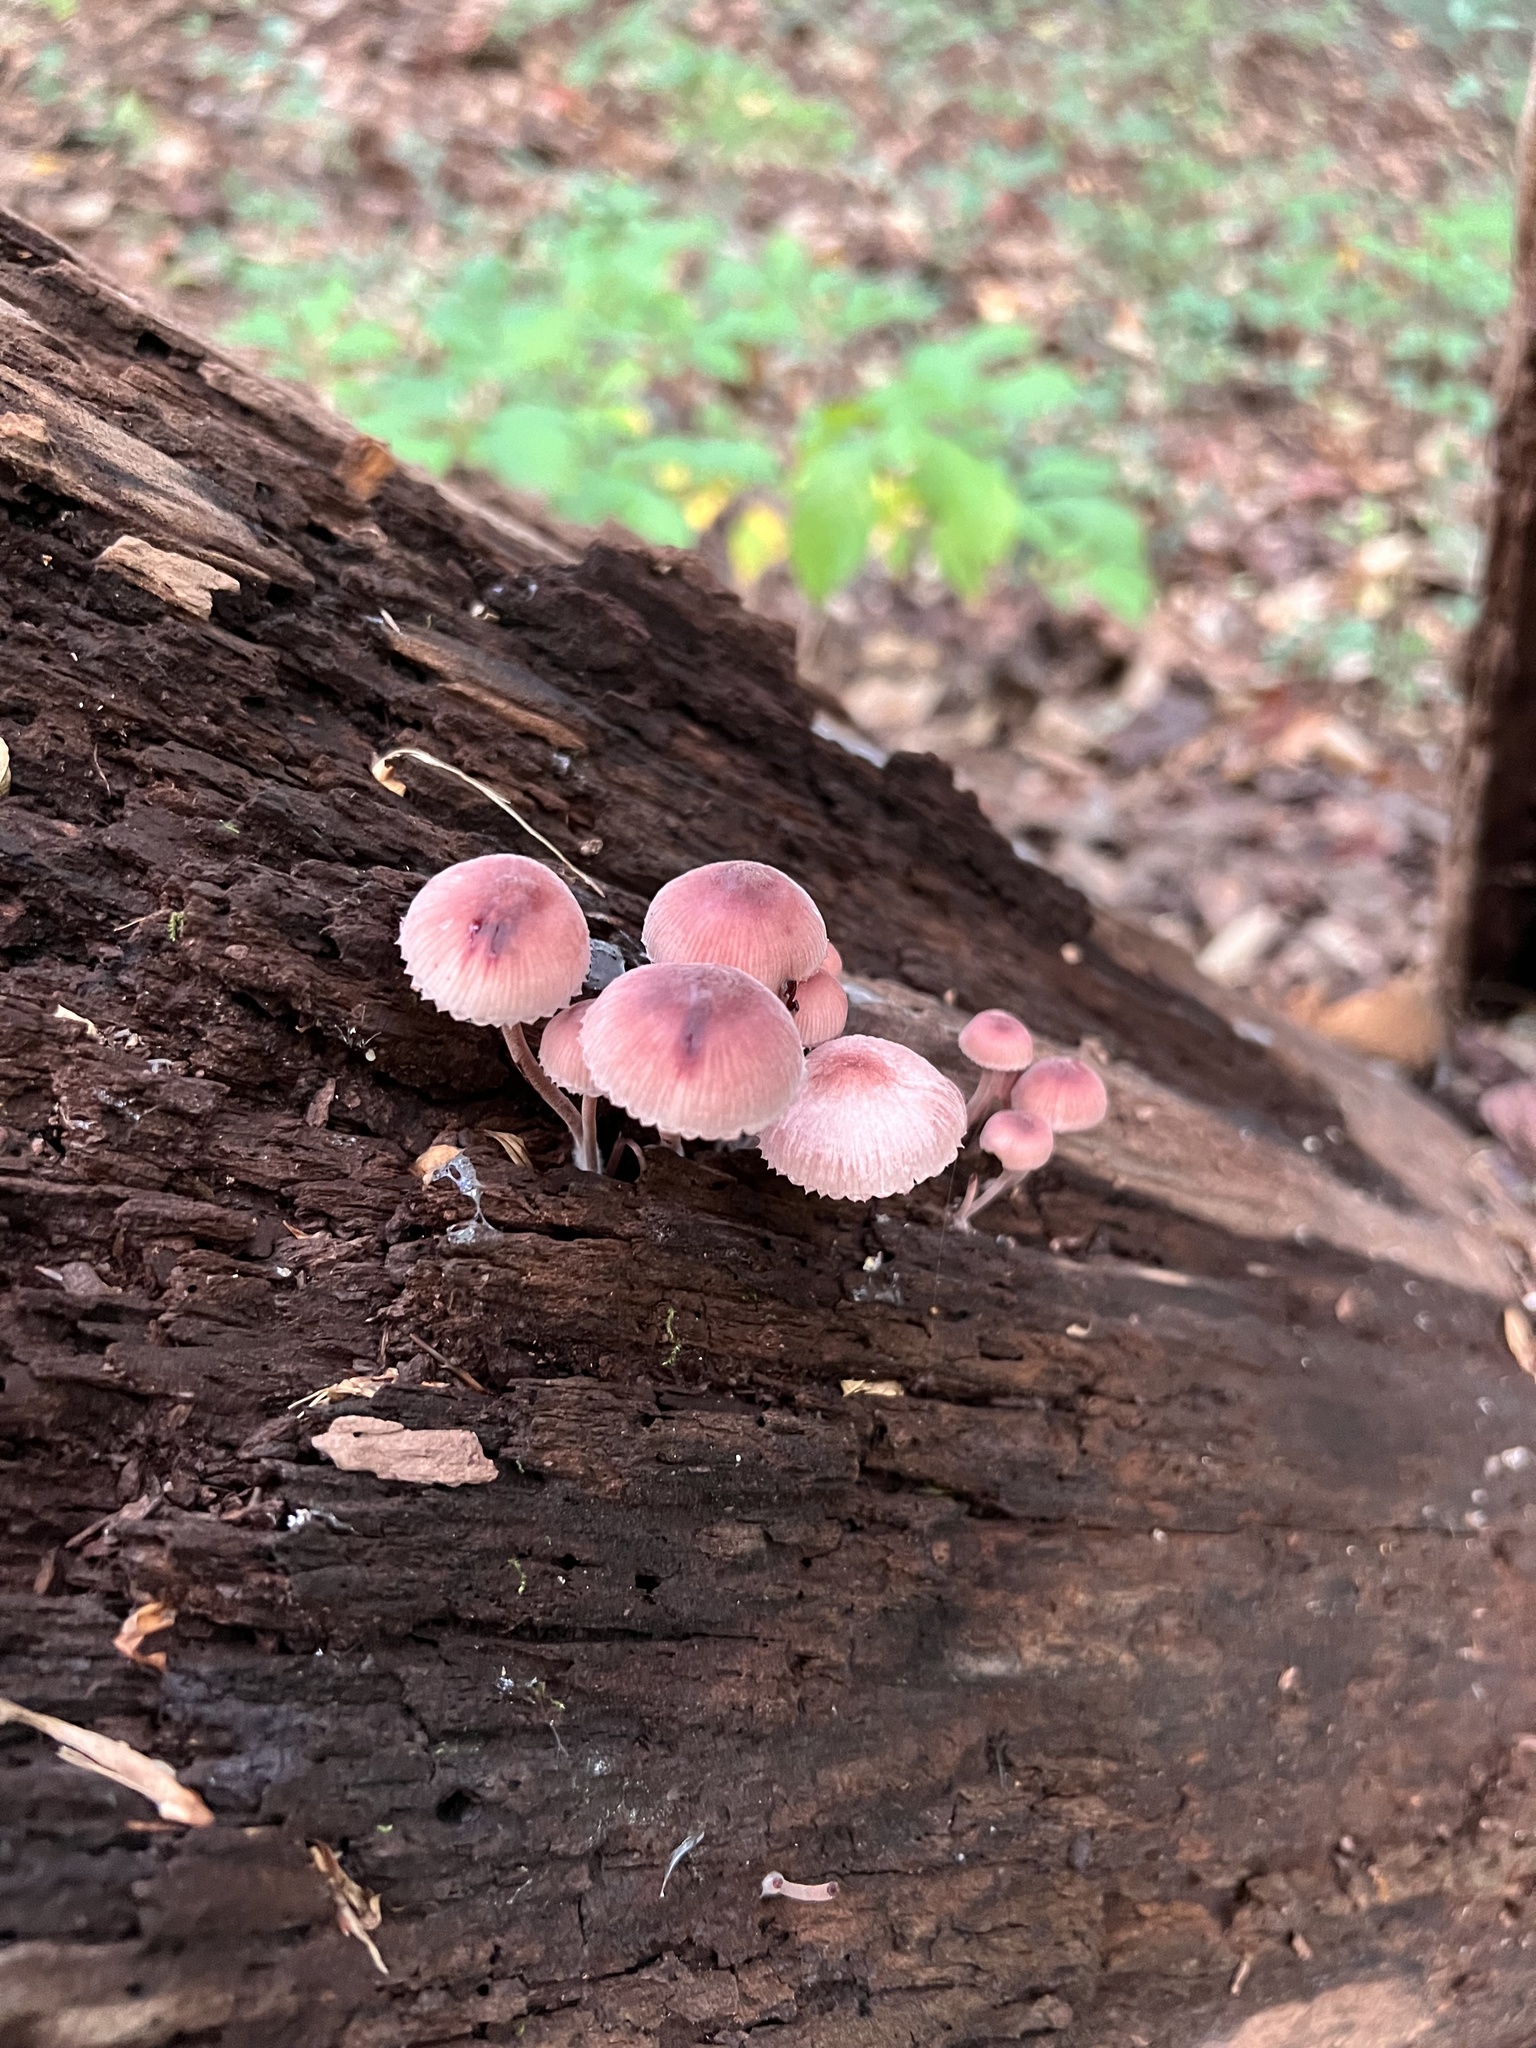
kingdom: Fungi
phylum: Basidiomycota
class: Agaricomycetes
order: Agaricales
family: Mycenaceae
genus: Mycena
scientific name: Mycena haematopus
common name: Burgundydrop bonnet
